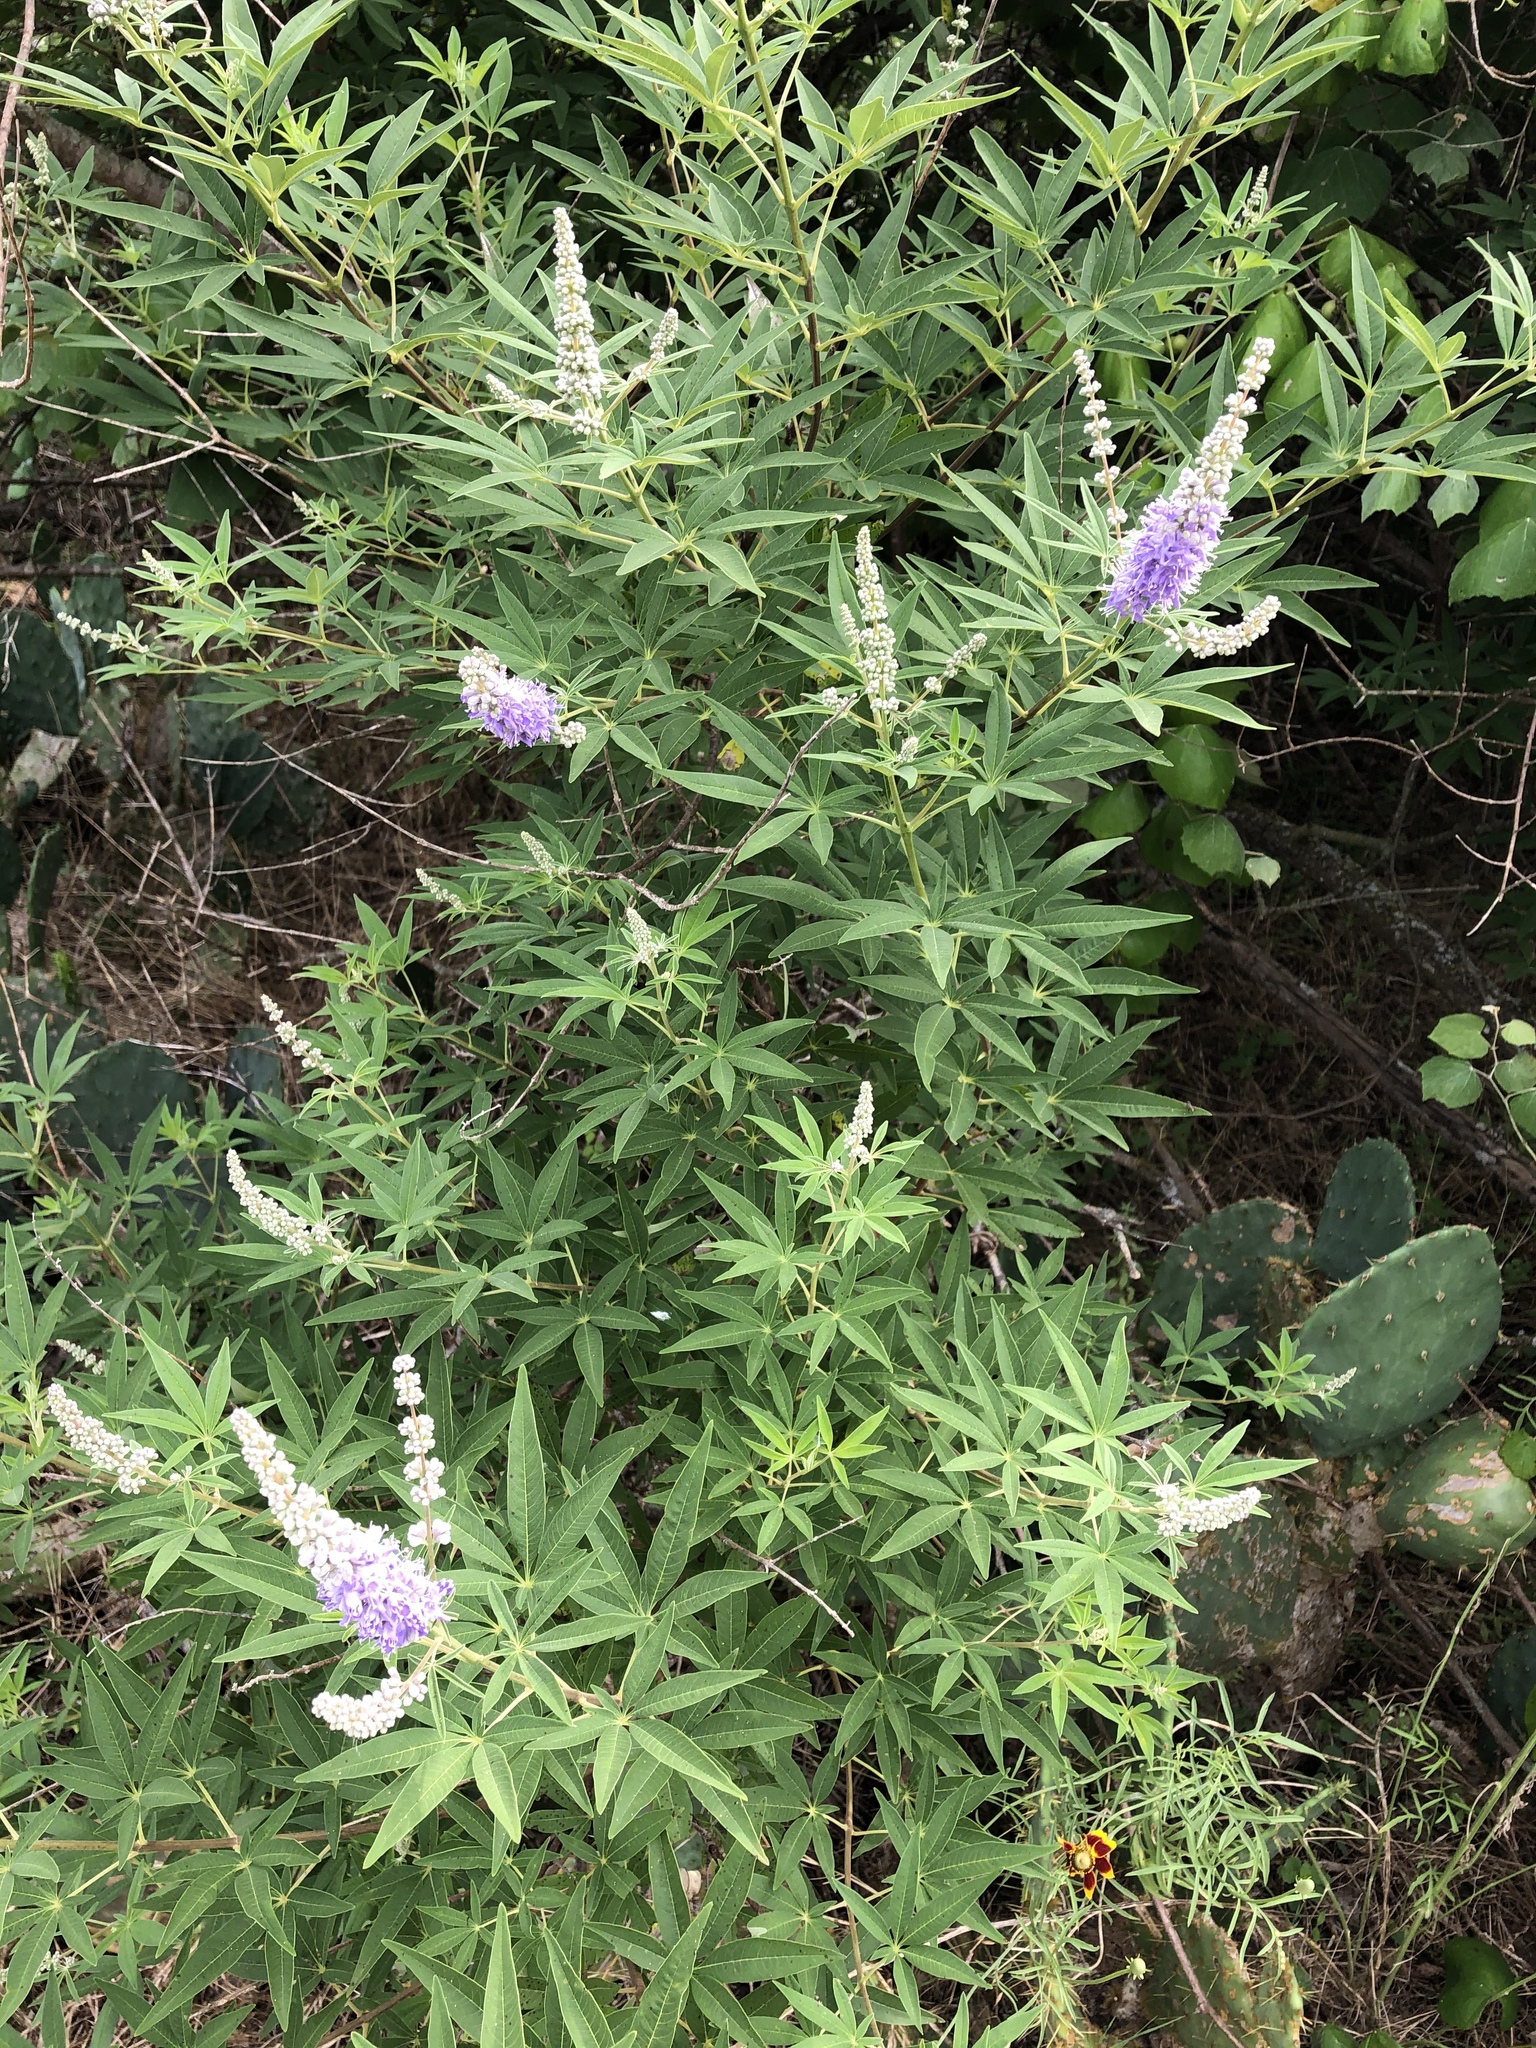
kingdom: Plantae
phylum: Tracheophyta
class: Magnoliopsida
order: Lamiales
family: Lamiaceae
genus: Vitex
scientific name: Vitex agnus-castus
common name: Chasteberry
